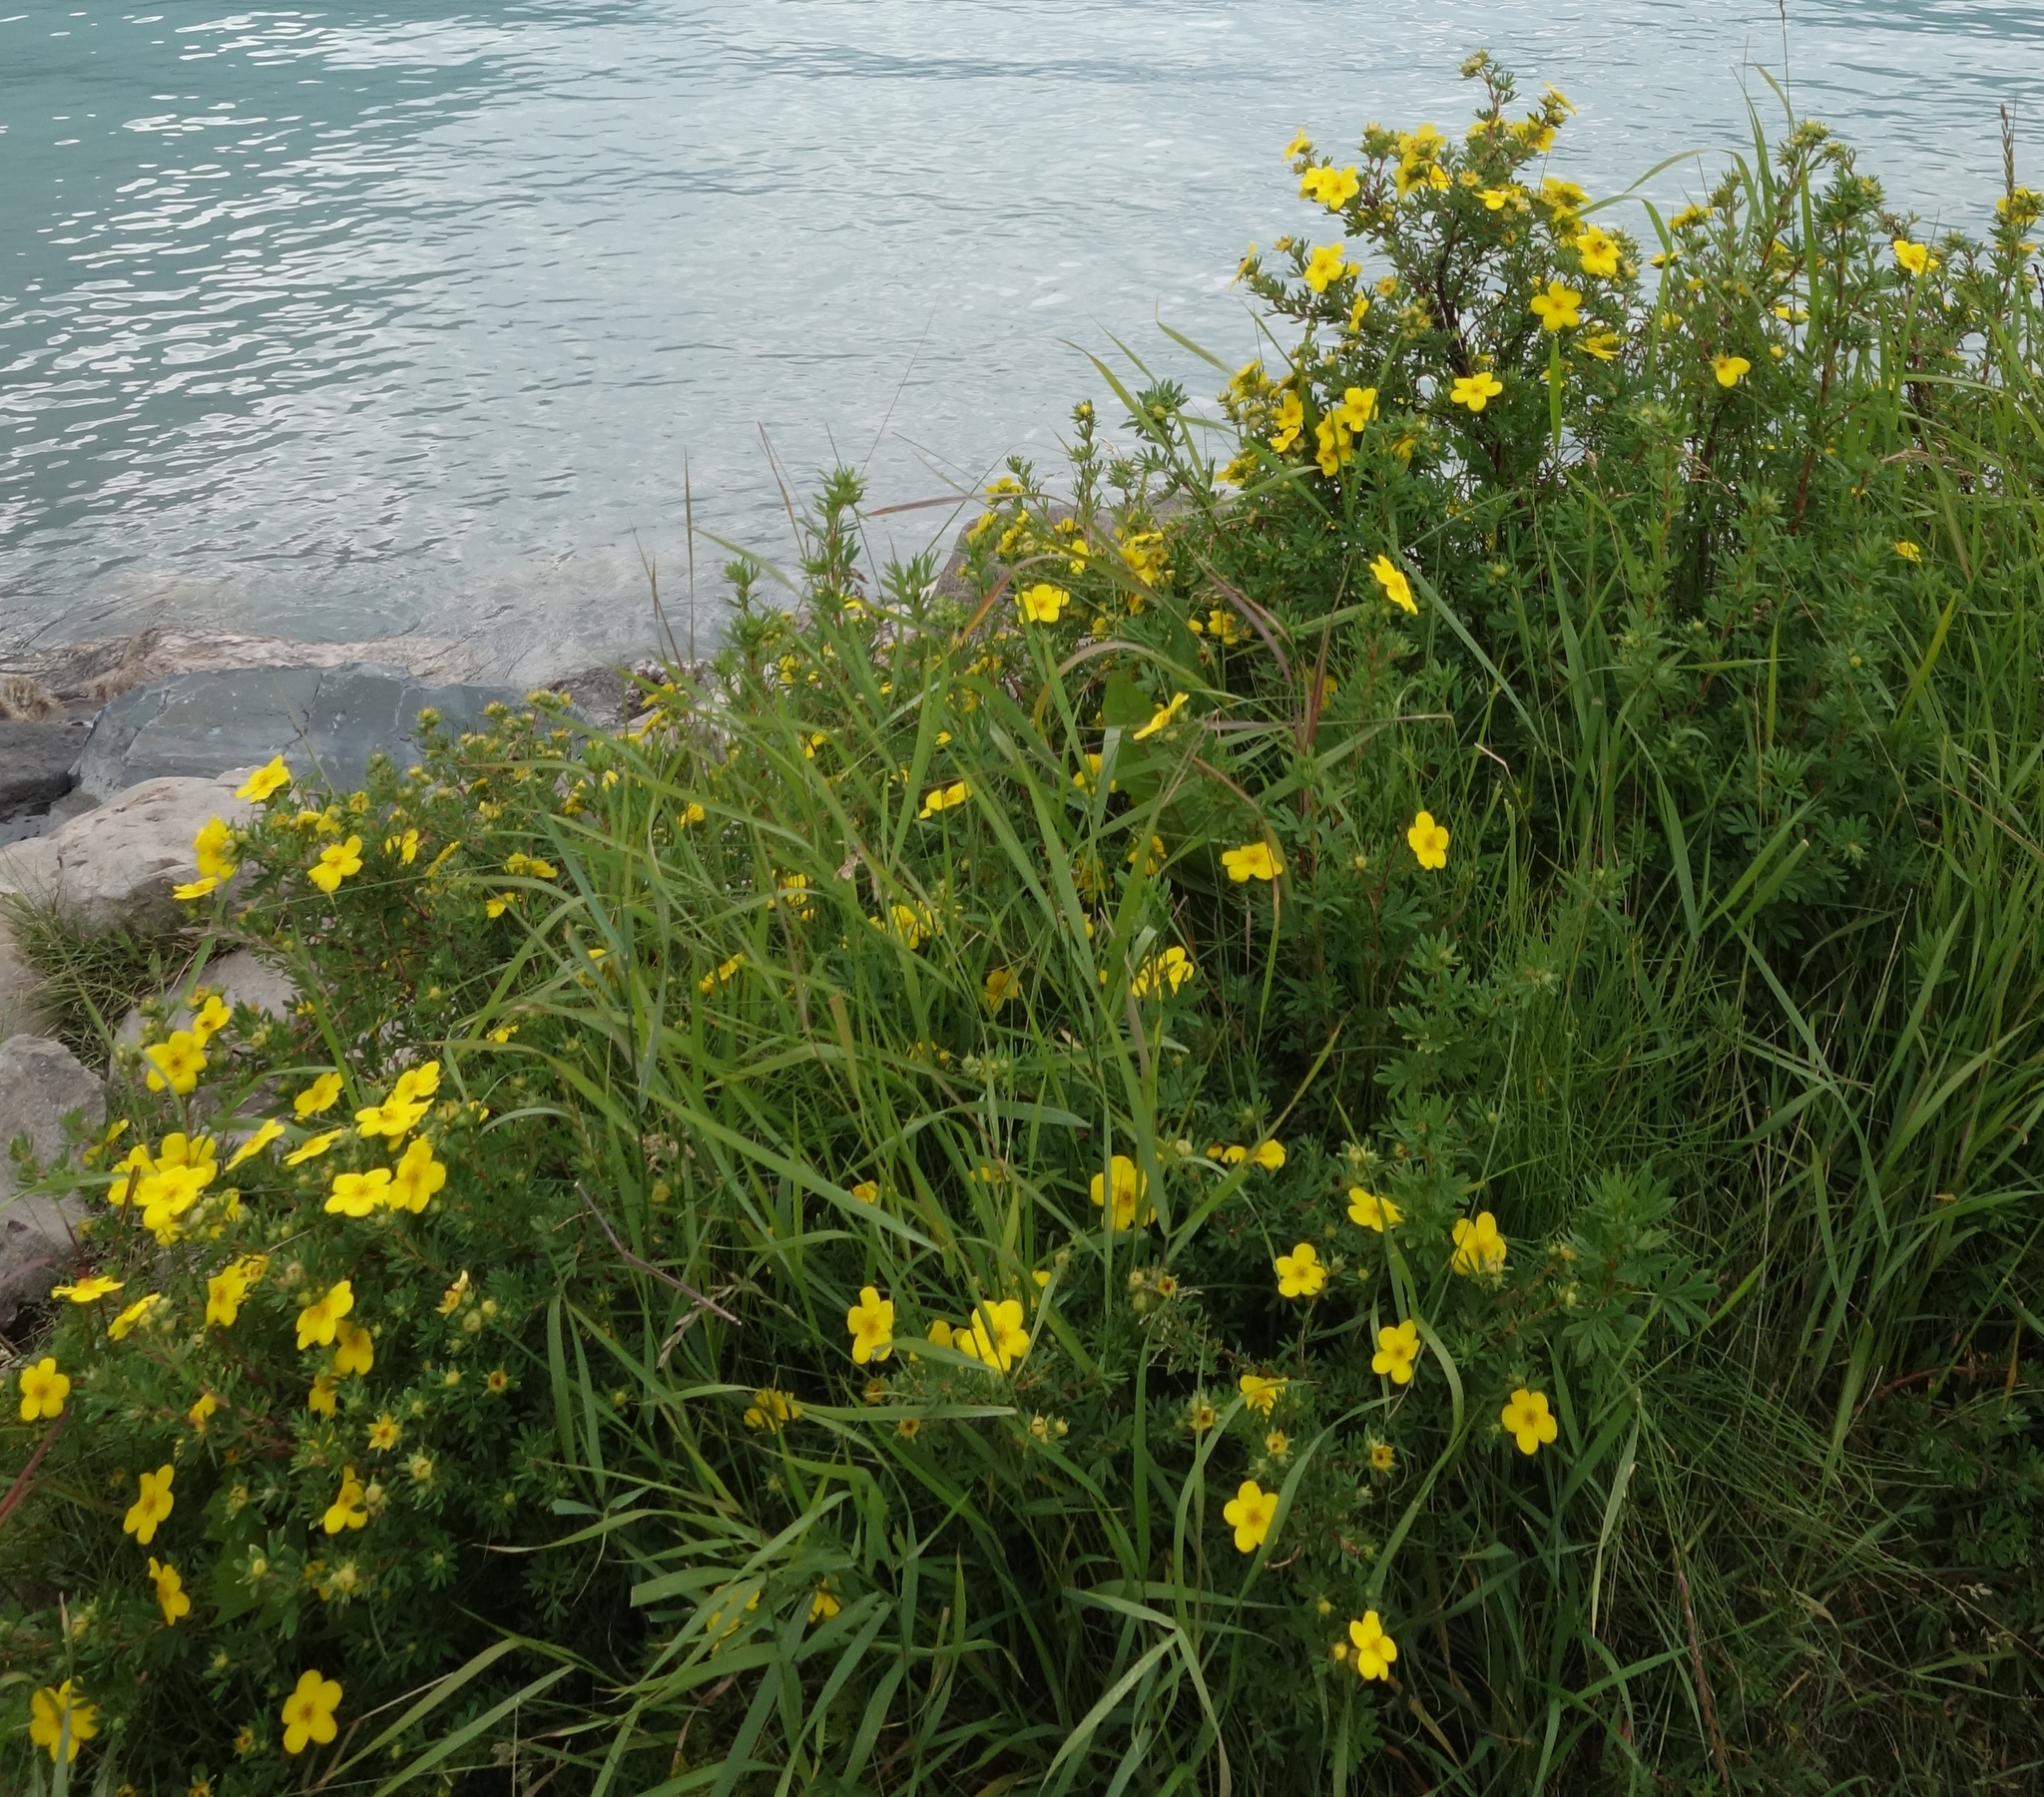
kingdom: Plantae
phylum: Tracheophyta
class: Magnoliopsida
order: Rosales
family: Rosaceae
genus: Dasiphora
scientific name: Dasiphora fruticosa
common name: Shrubby cinquefoil
